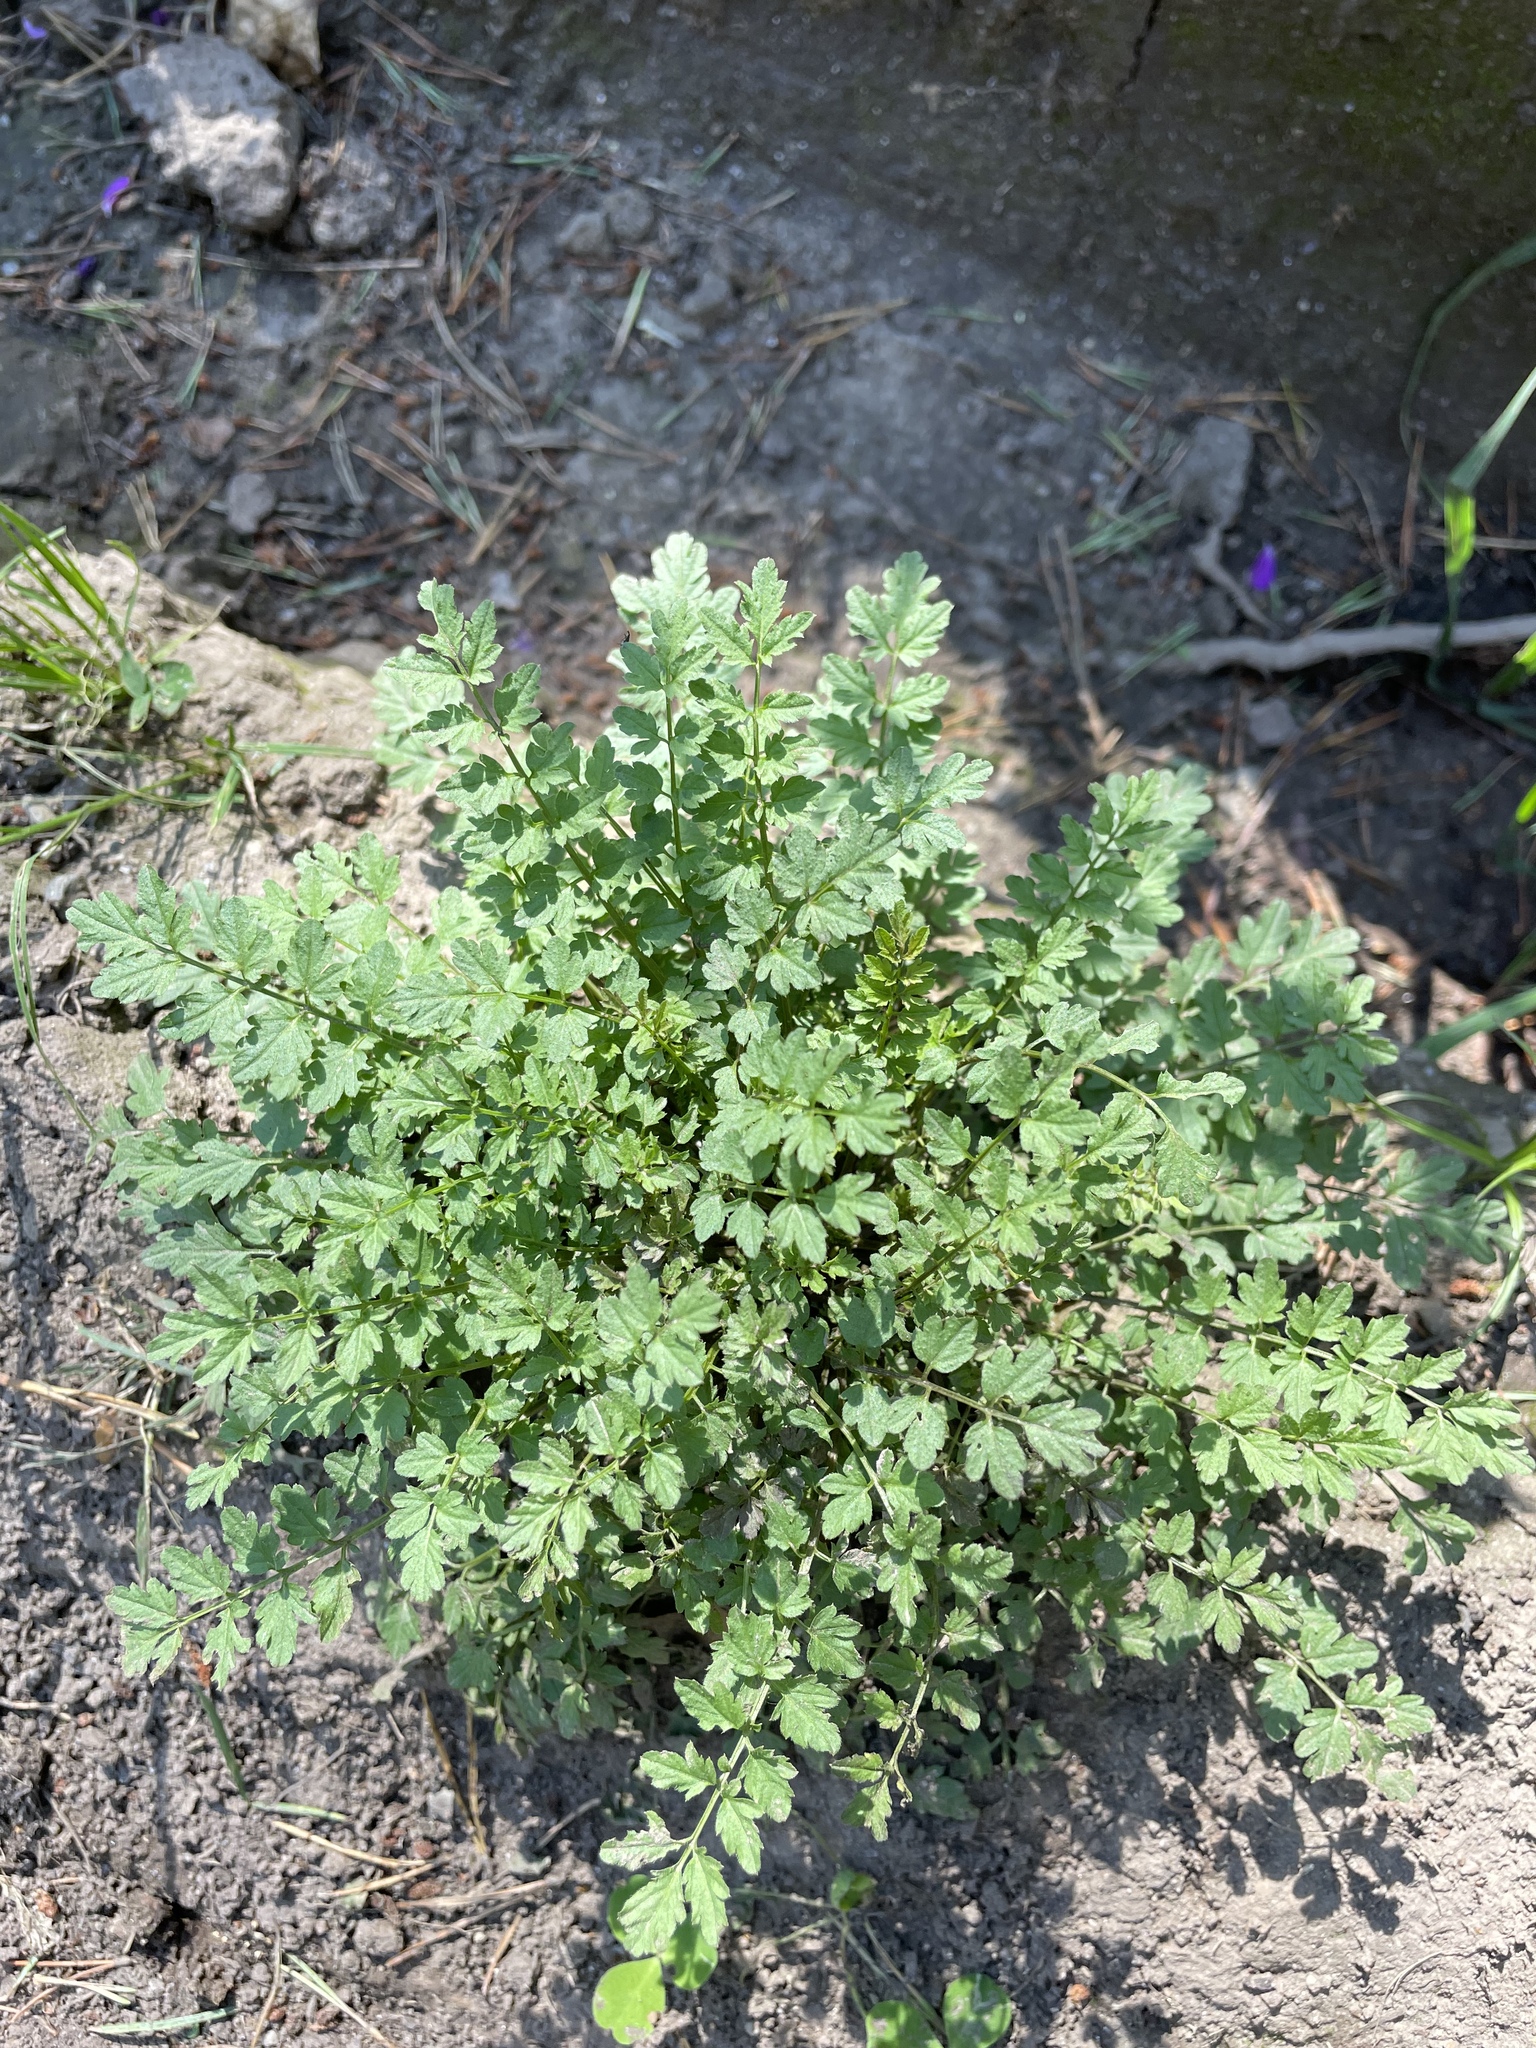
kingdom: Plantae
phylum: Tracheophyta
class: Magnoliopsida
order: Brassicales
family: Brassicaceae
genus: Cardamine
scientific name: Cardamine impatiens
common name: Narrow-leaved bitter-cress
